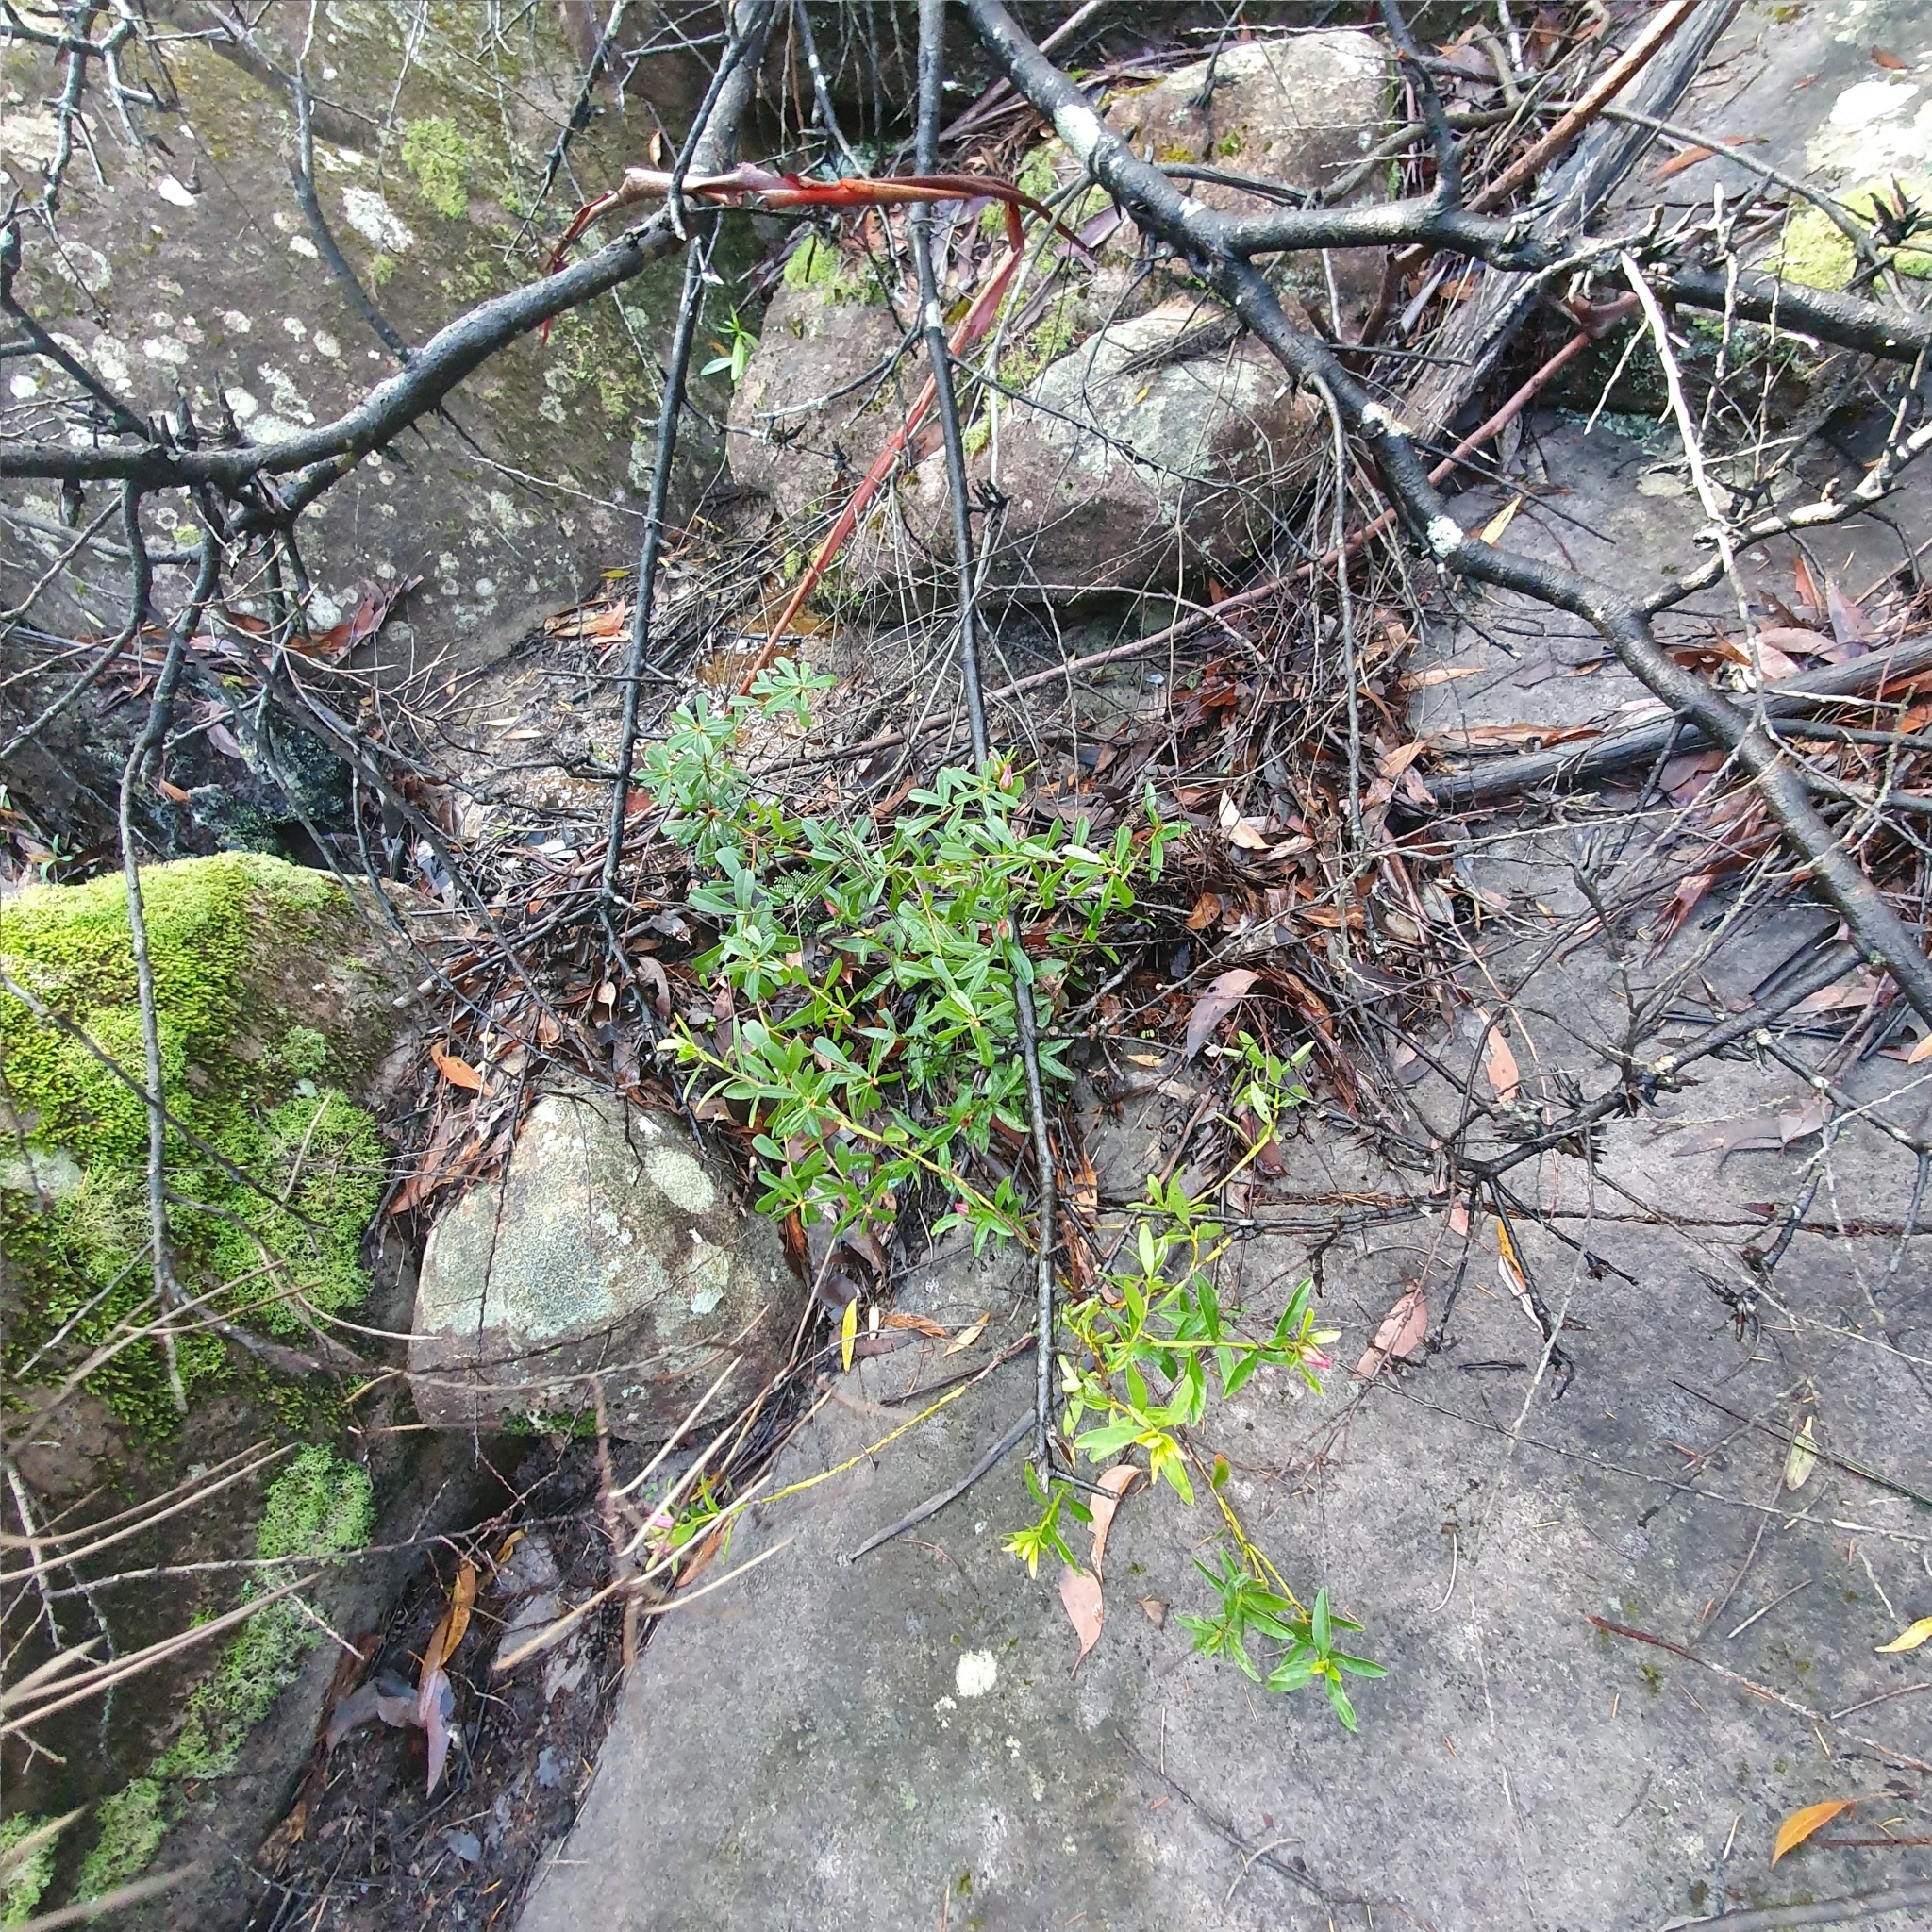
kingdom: Plantae
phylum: Tracheophyta
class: Magnoliopsida
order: Sapindales
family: Rutaceae
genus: Crowea
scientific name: Crowea saligna
